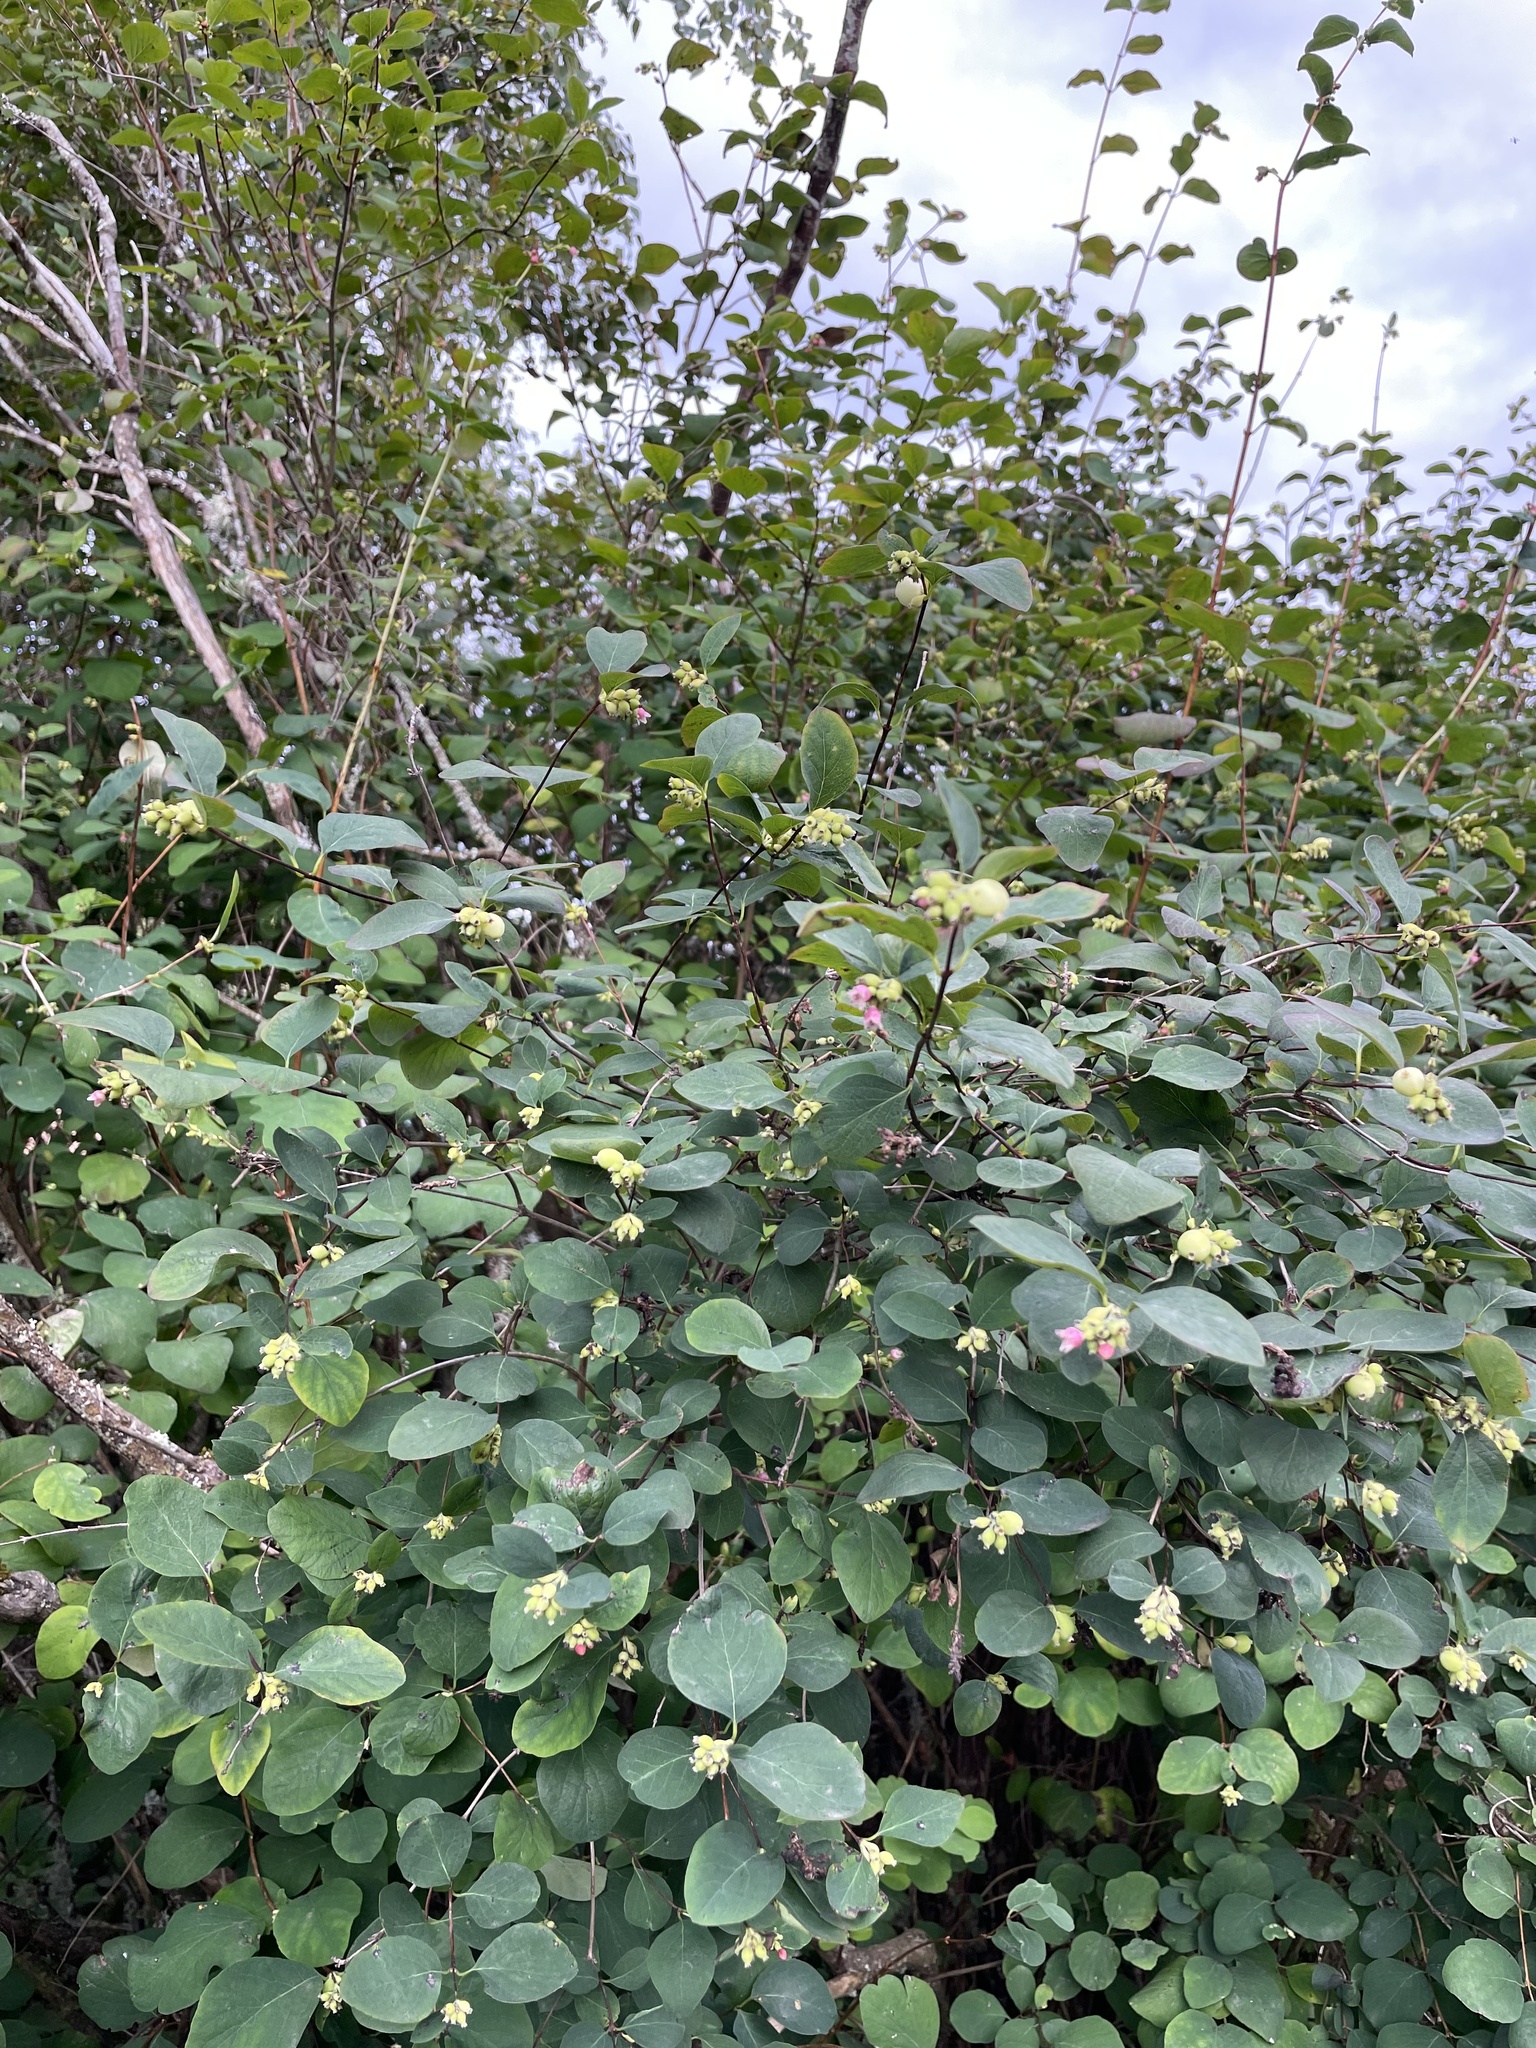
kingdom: Plantae
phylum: Tracheophyta
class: Magnoliopsida
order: Dipsacales
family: Caprifoliaceae
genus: Symphoricarpos
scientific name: Symphoricarpos albus
